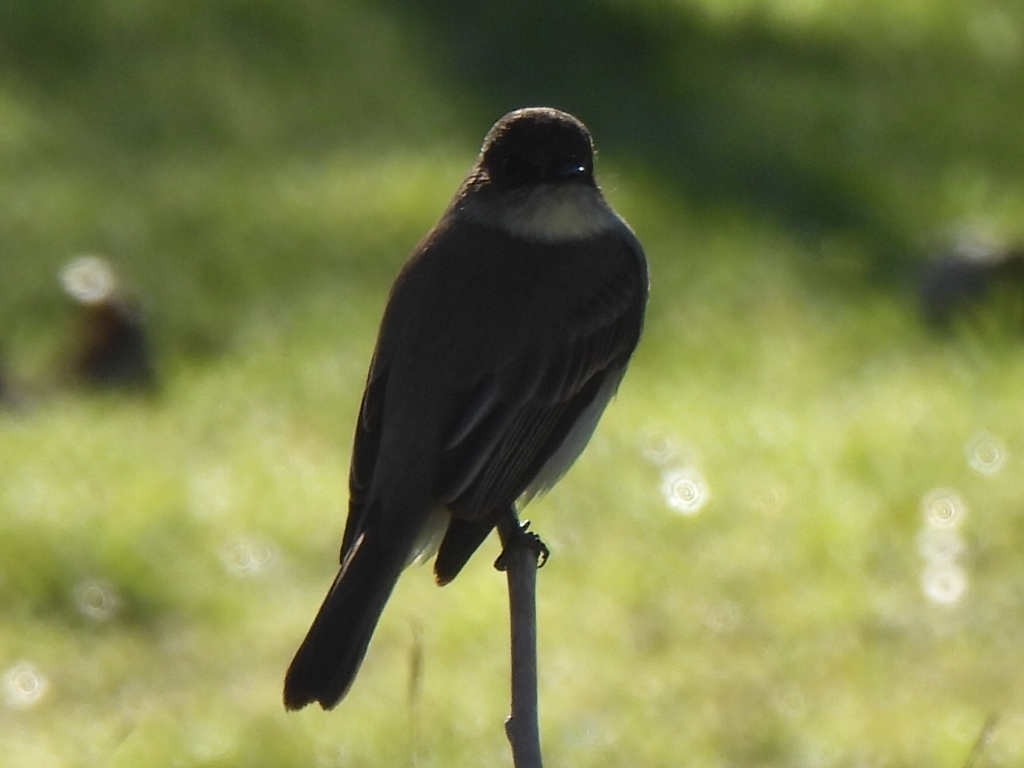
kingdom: Animalia
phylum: Chordata
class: Aves
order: Passeriformes
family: Tyrannidae
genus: Sayornis
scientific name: Sayornis phoebe
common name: Eastern phoebe
